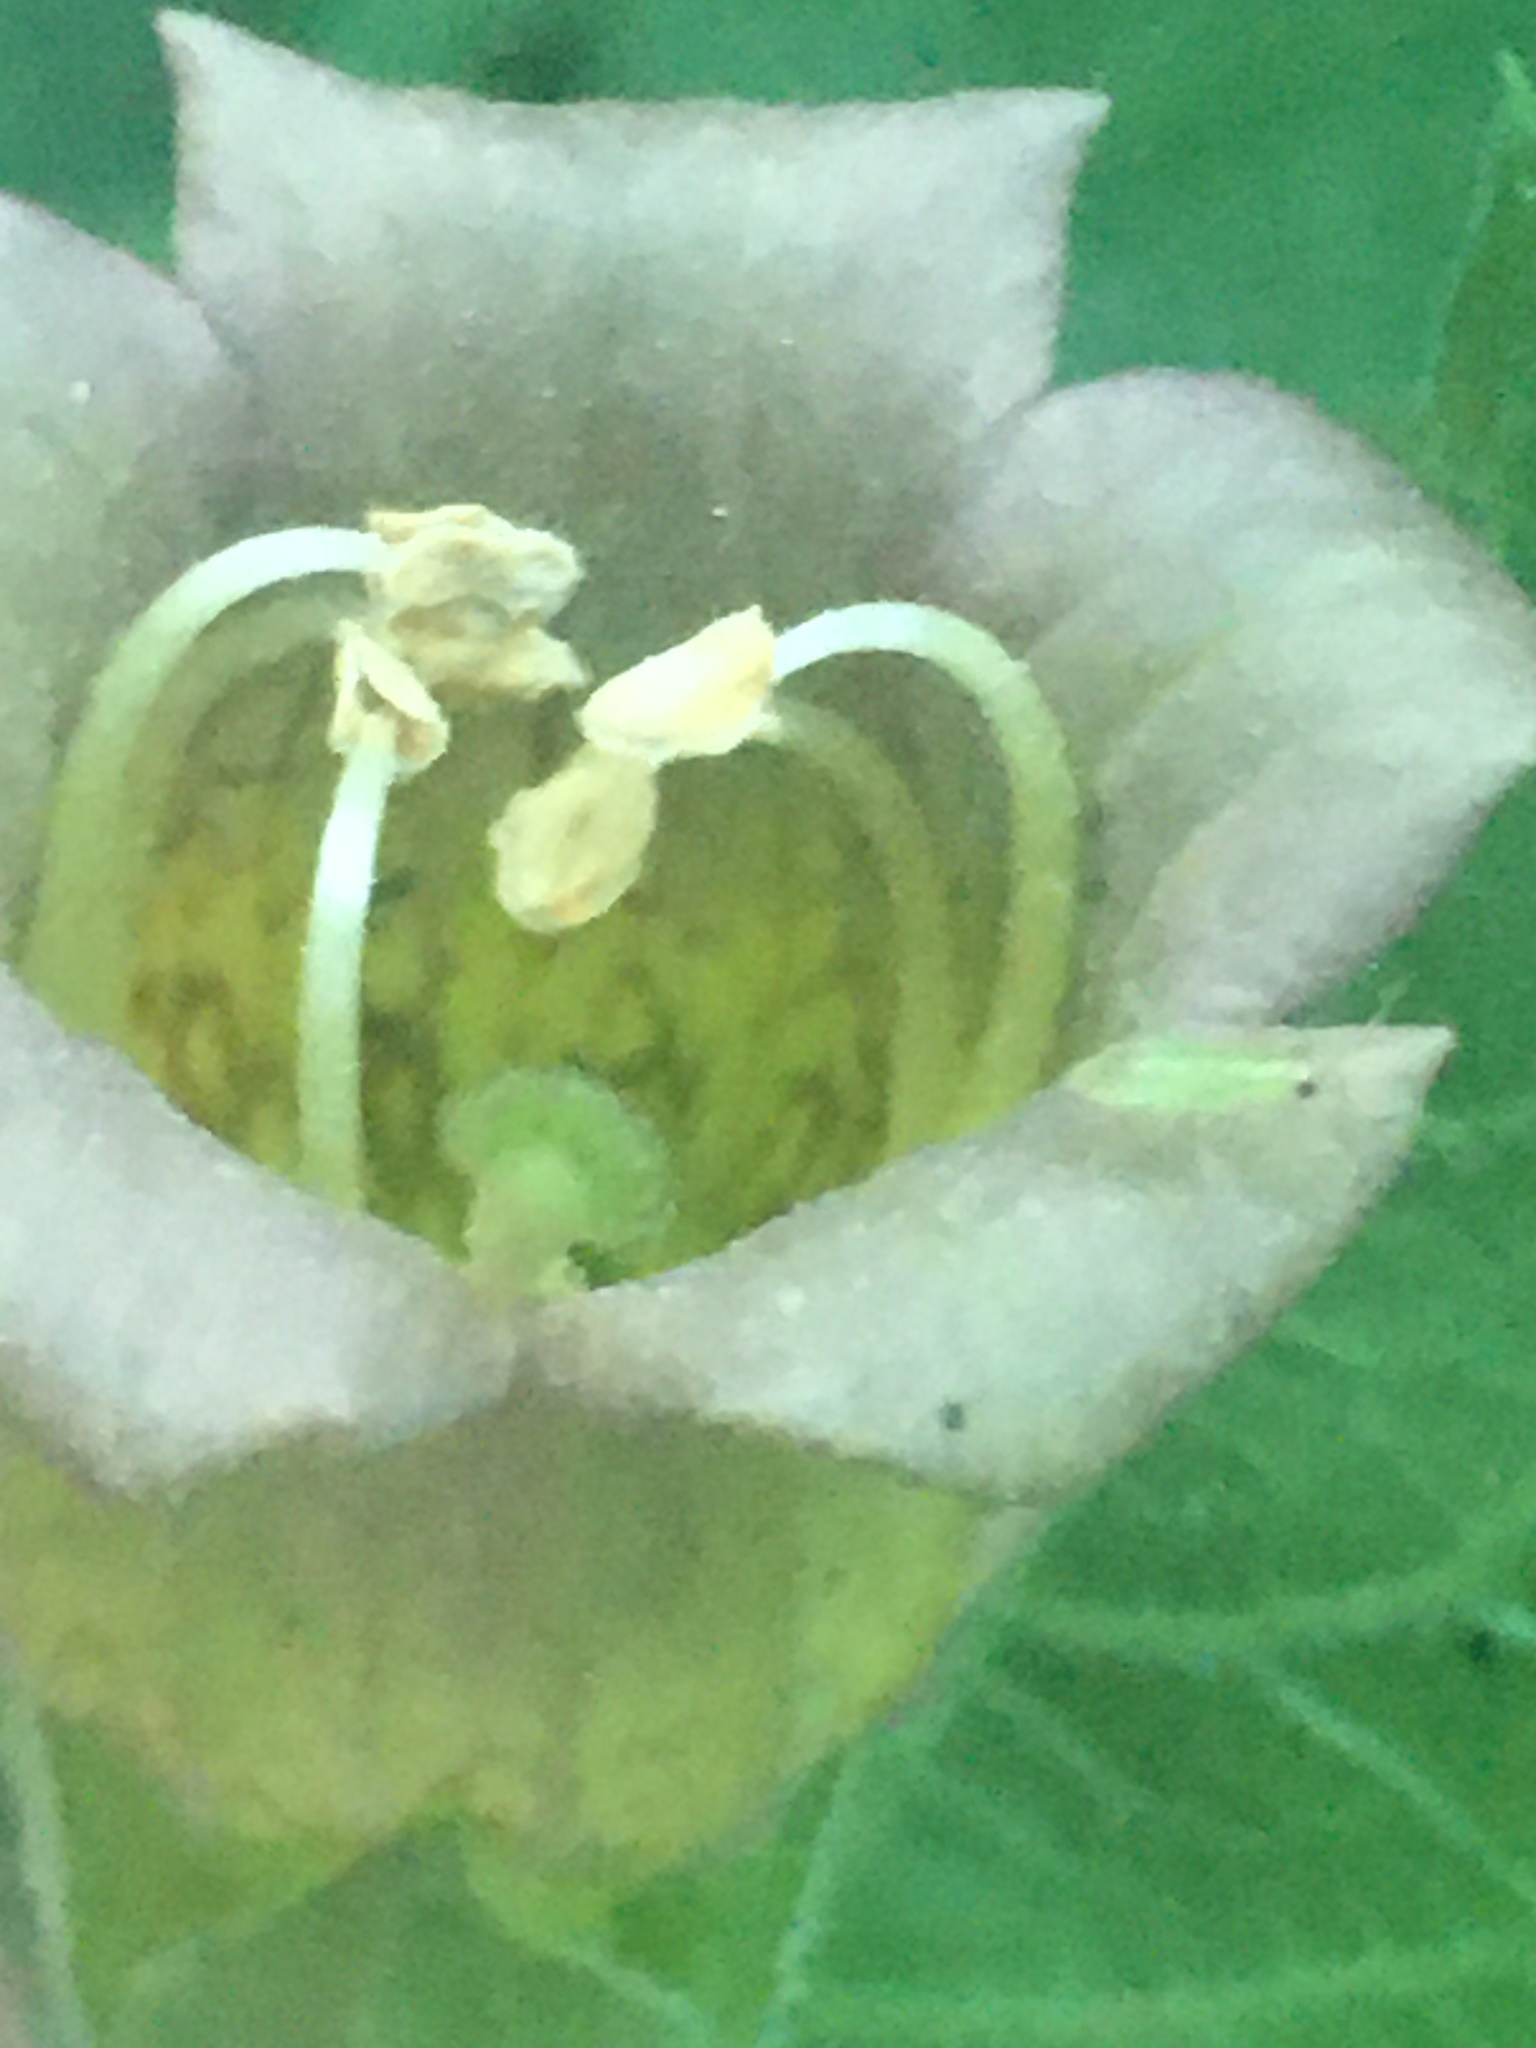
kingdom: Plantae
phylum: Tracheophyta
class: Magnoliopsida
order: Solanales
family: Solanaceae
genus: Atropa
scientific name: Atropa belladonna
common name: Deadly nightshade
